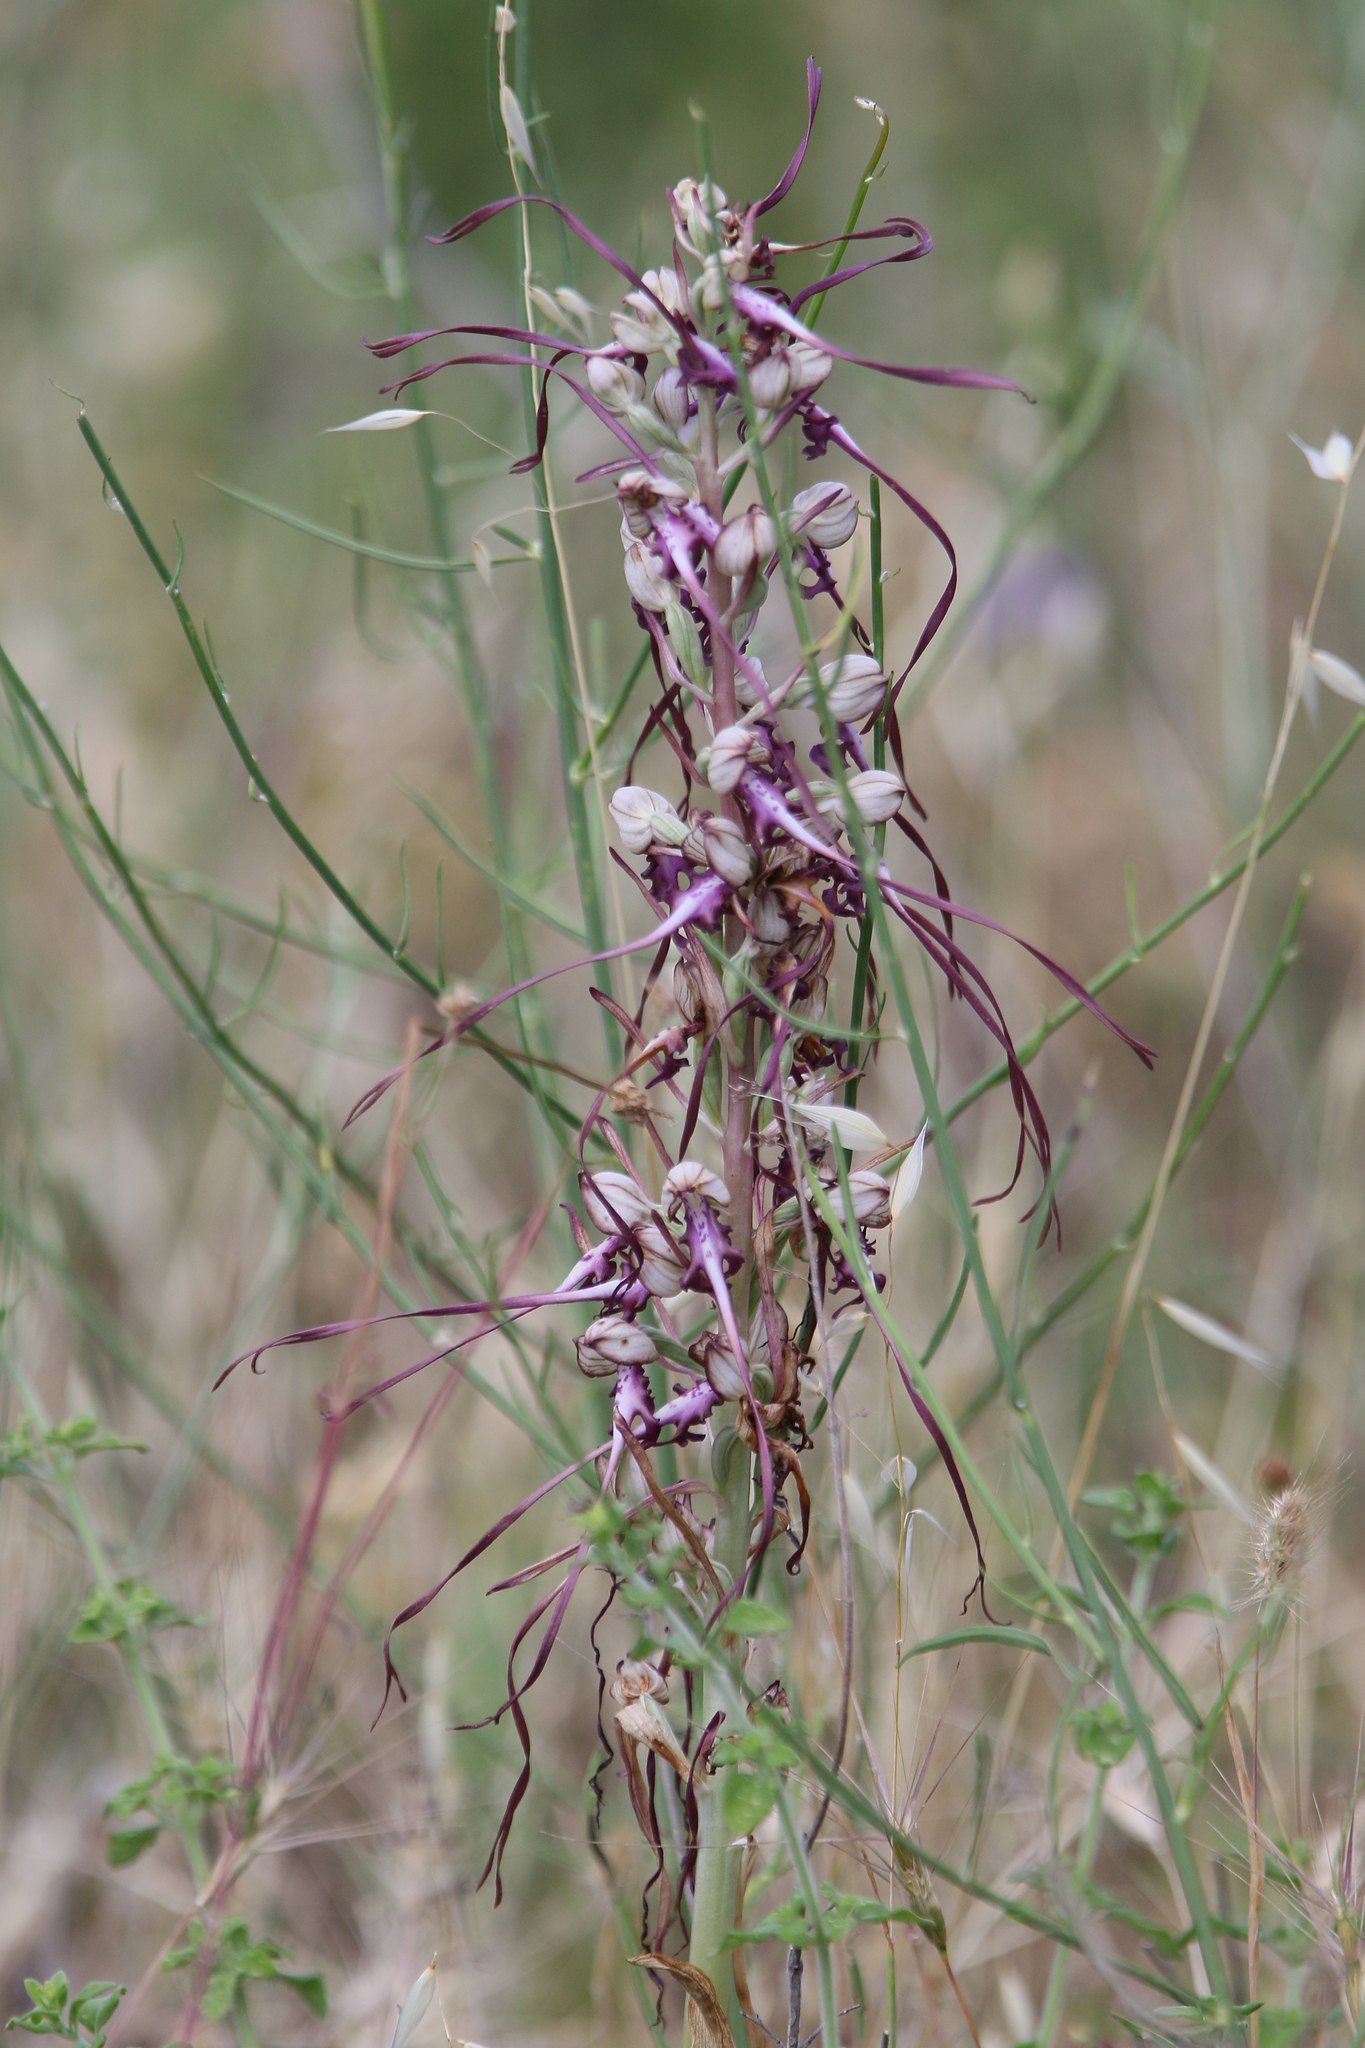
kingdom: Plantae
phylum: Tracheophyta
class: Liliopsida
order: Asparagales
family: Orchidaceae
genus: Himantoglossum
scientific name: Himantoglossum calcaratum
